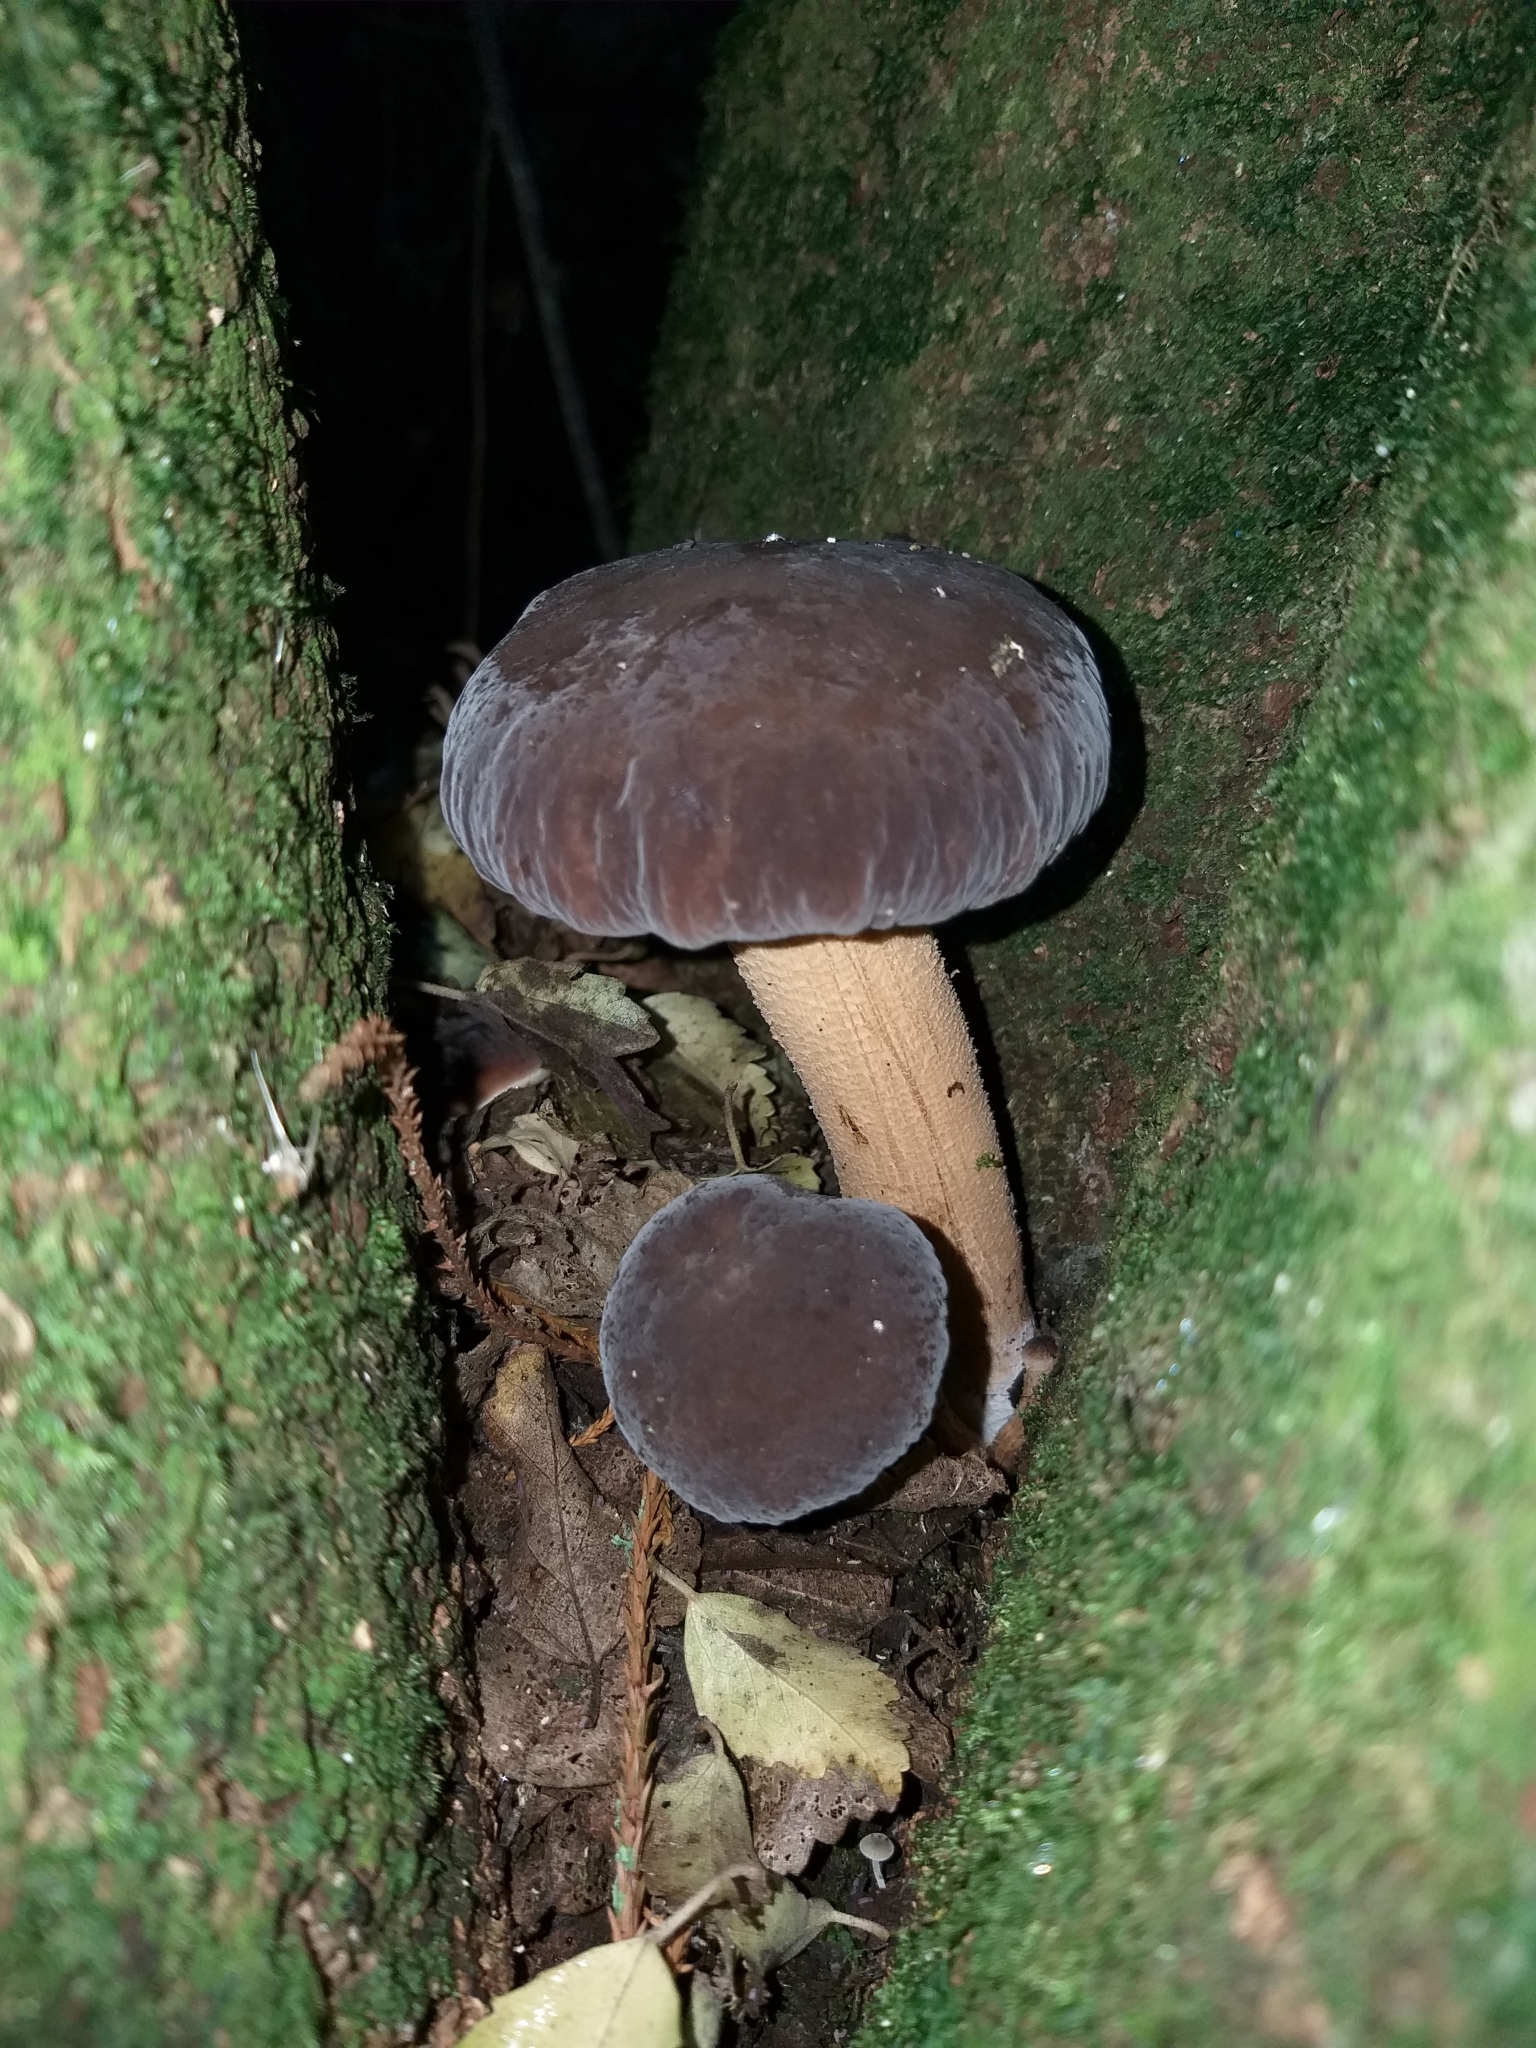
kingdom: Fungi
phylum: Basidiomycota
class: Agaricomycetes
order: Agaricales
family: Tubariaceae
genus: Cyclocybe
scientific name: Cyclocybe parasitica
